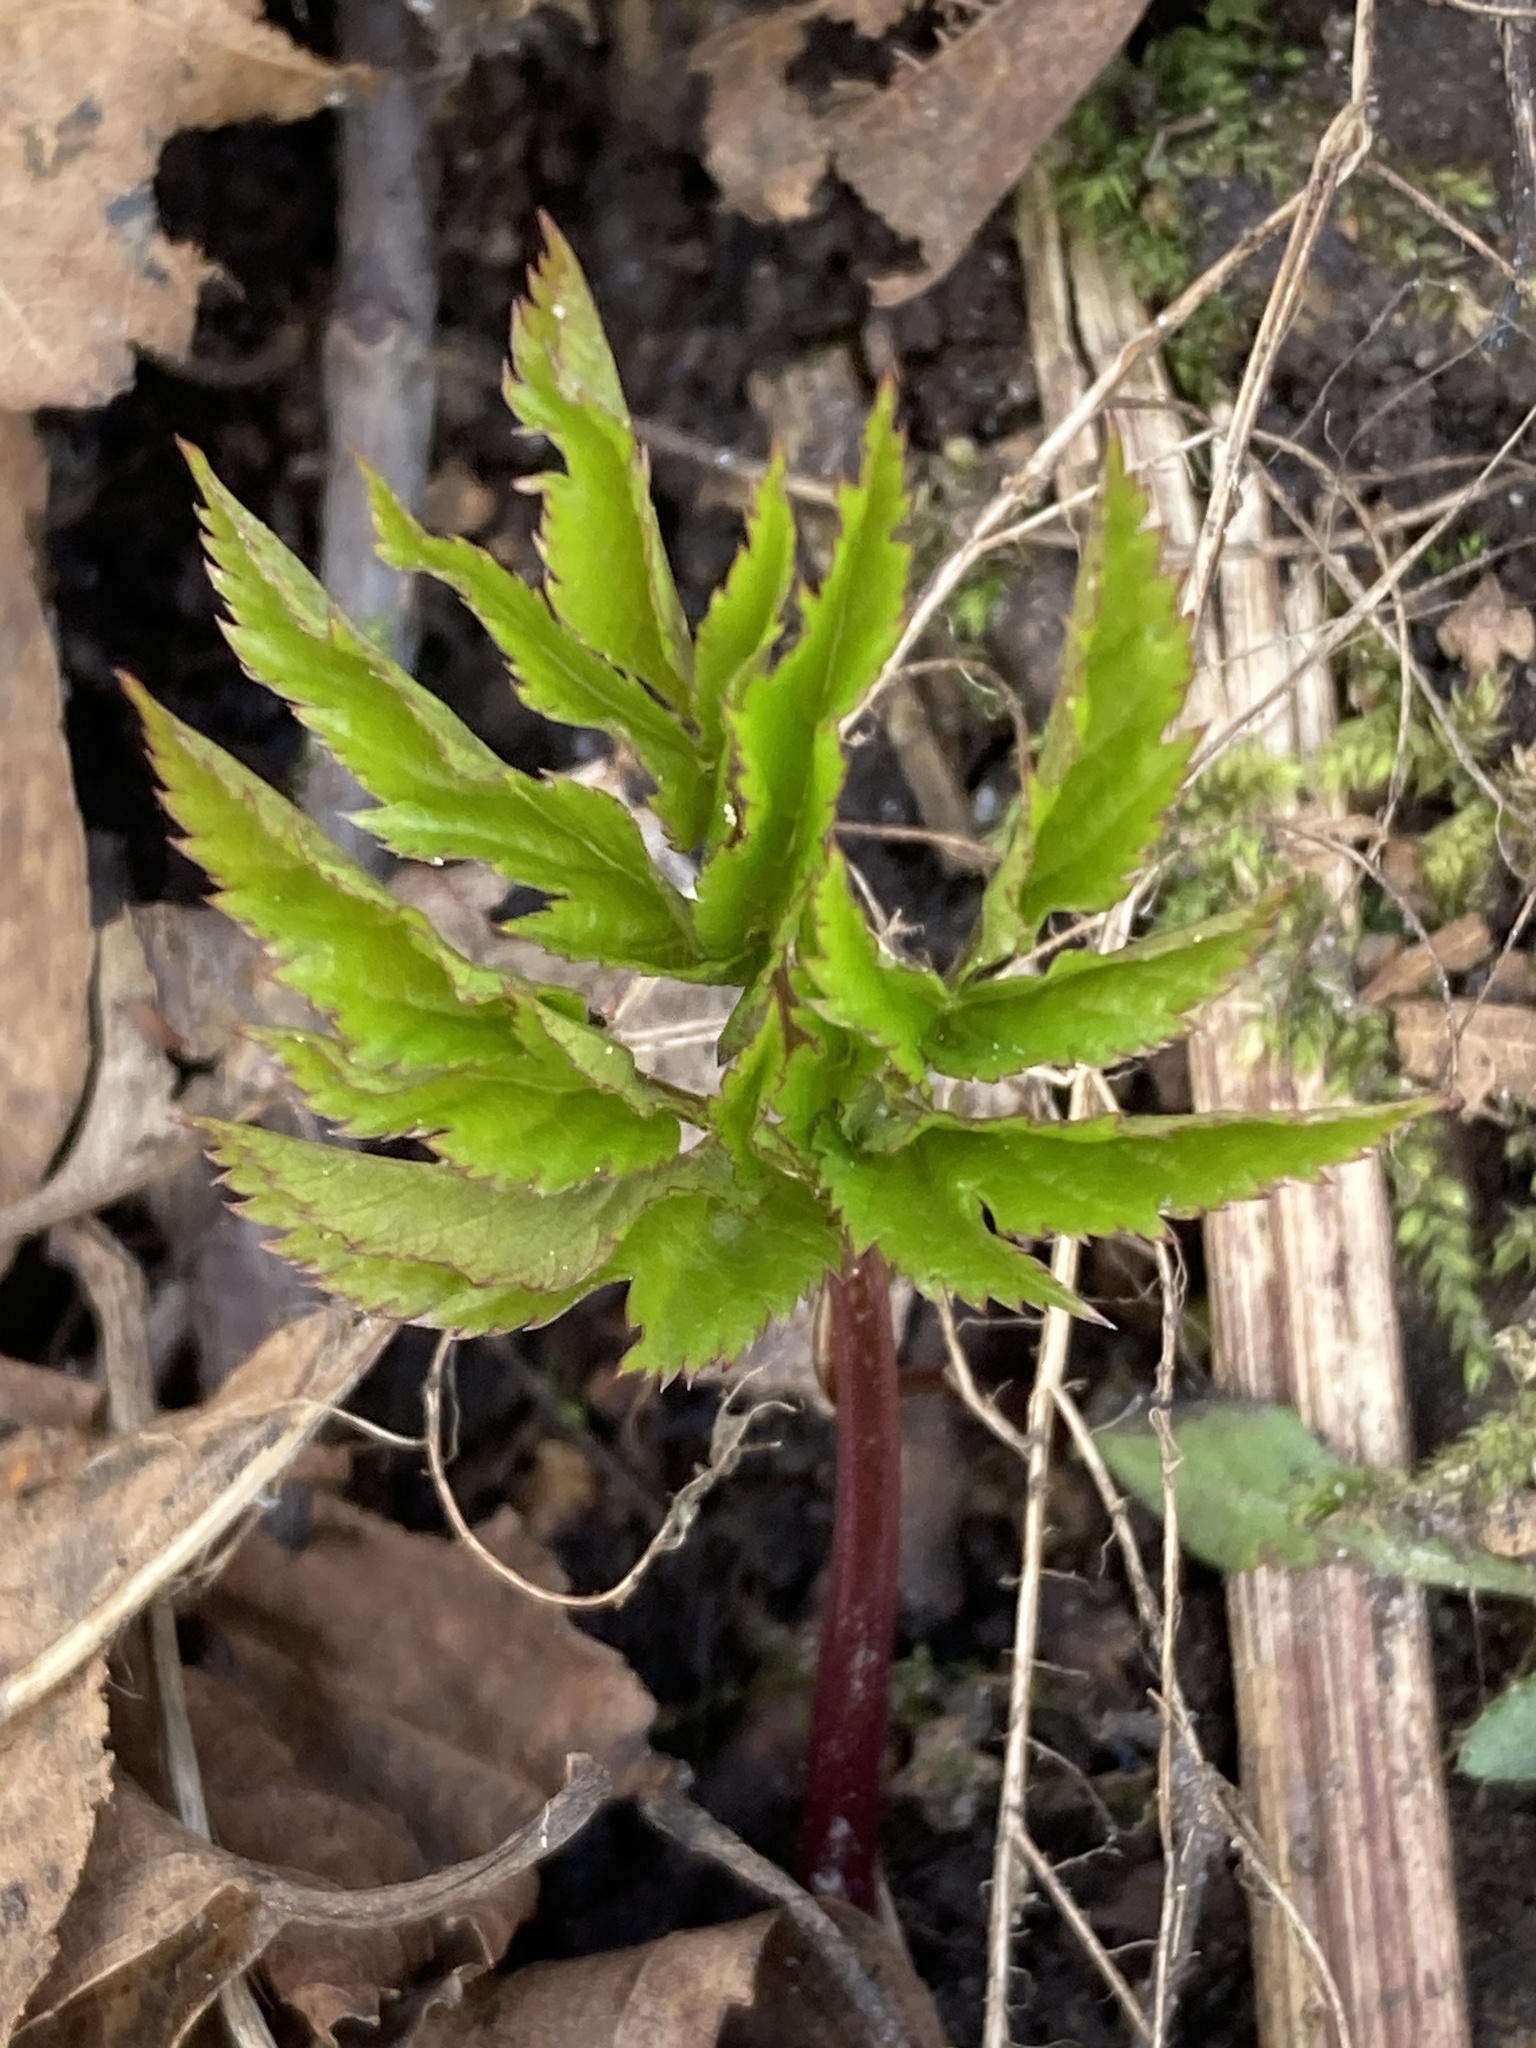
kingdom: Plantae
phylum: Tracheophyta
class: Magnoliopsida
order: Apiales
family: Apiaceae
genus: Aegopodium
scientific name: Aegopodium podagraria
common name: Ground-elder
